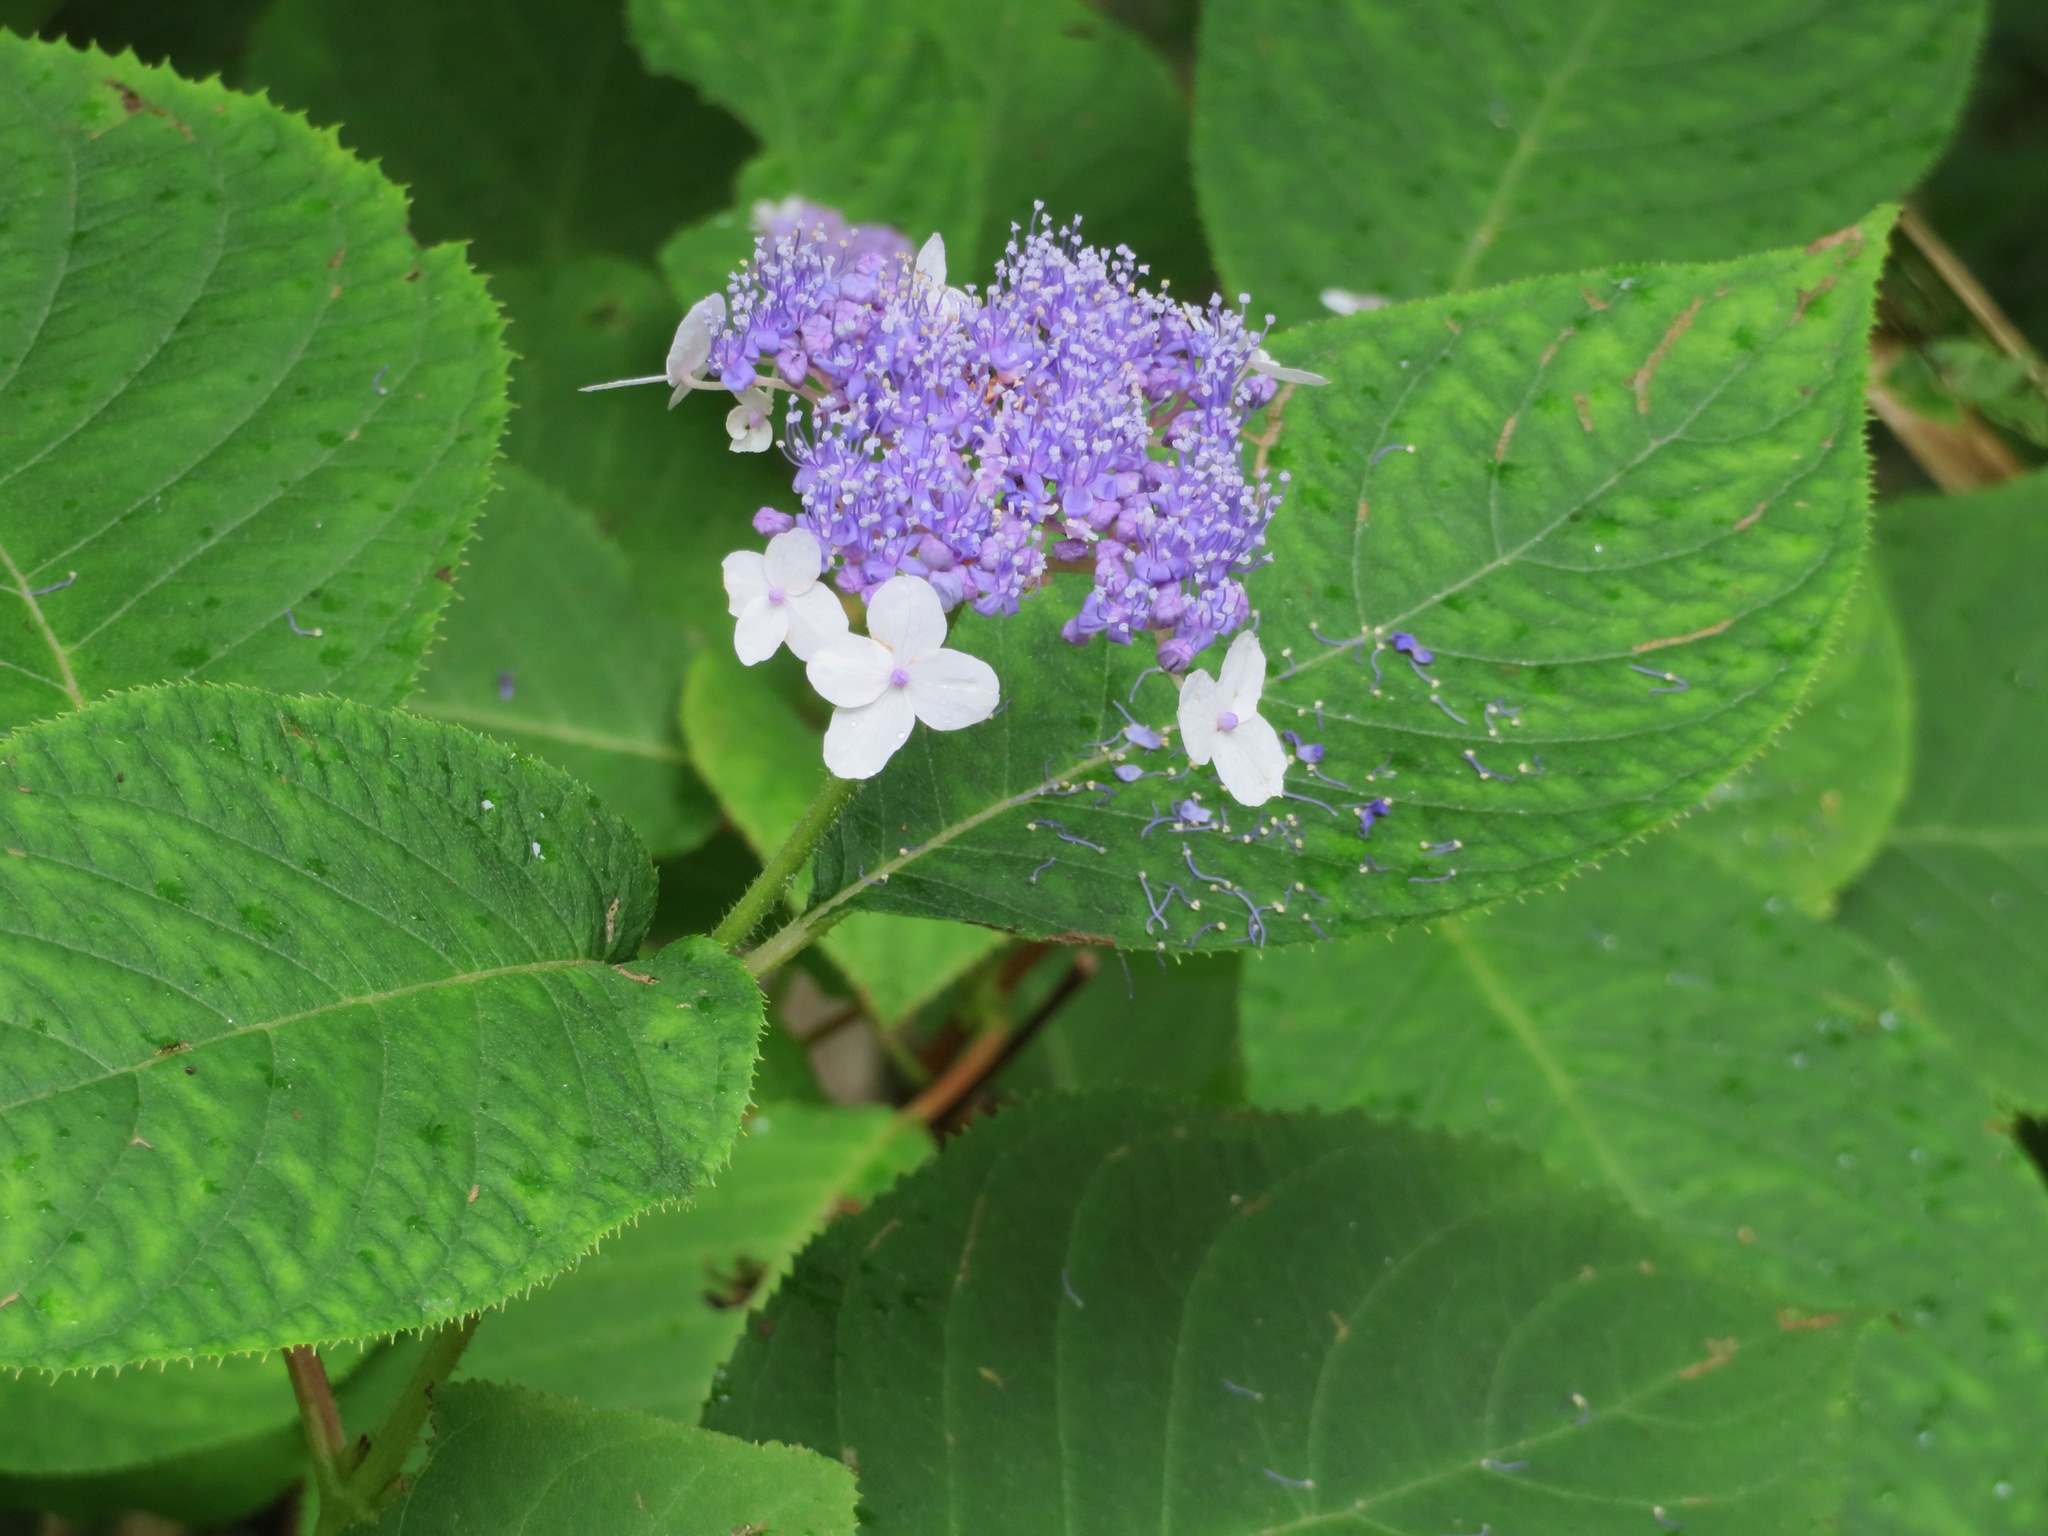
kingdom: Plantae
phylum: Tracheophyta
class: Magnoliopsida
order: Cornales
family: Hydrangeaceae
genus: Hydrangea
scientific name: Hydrangea involucrata
